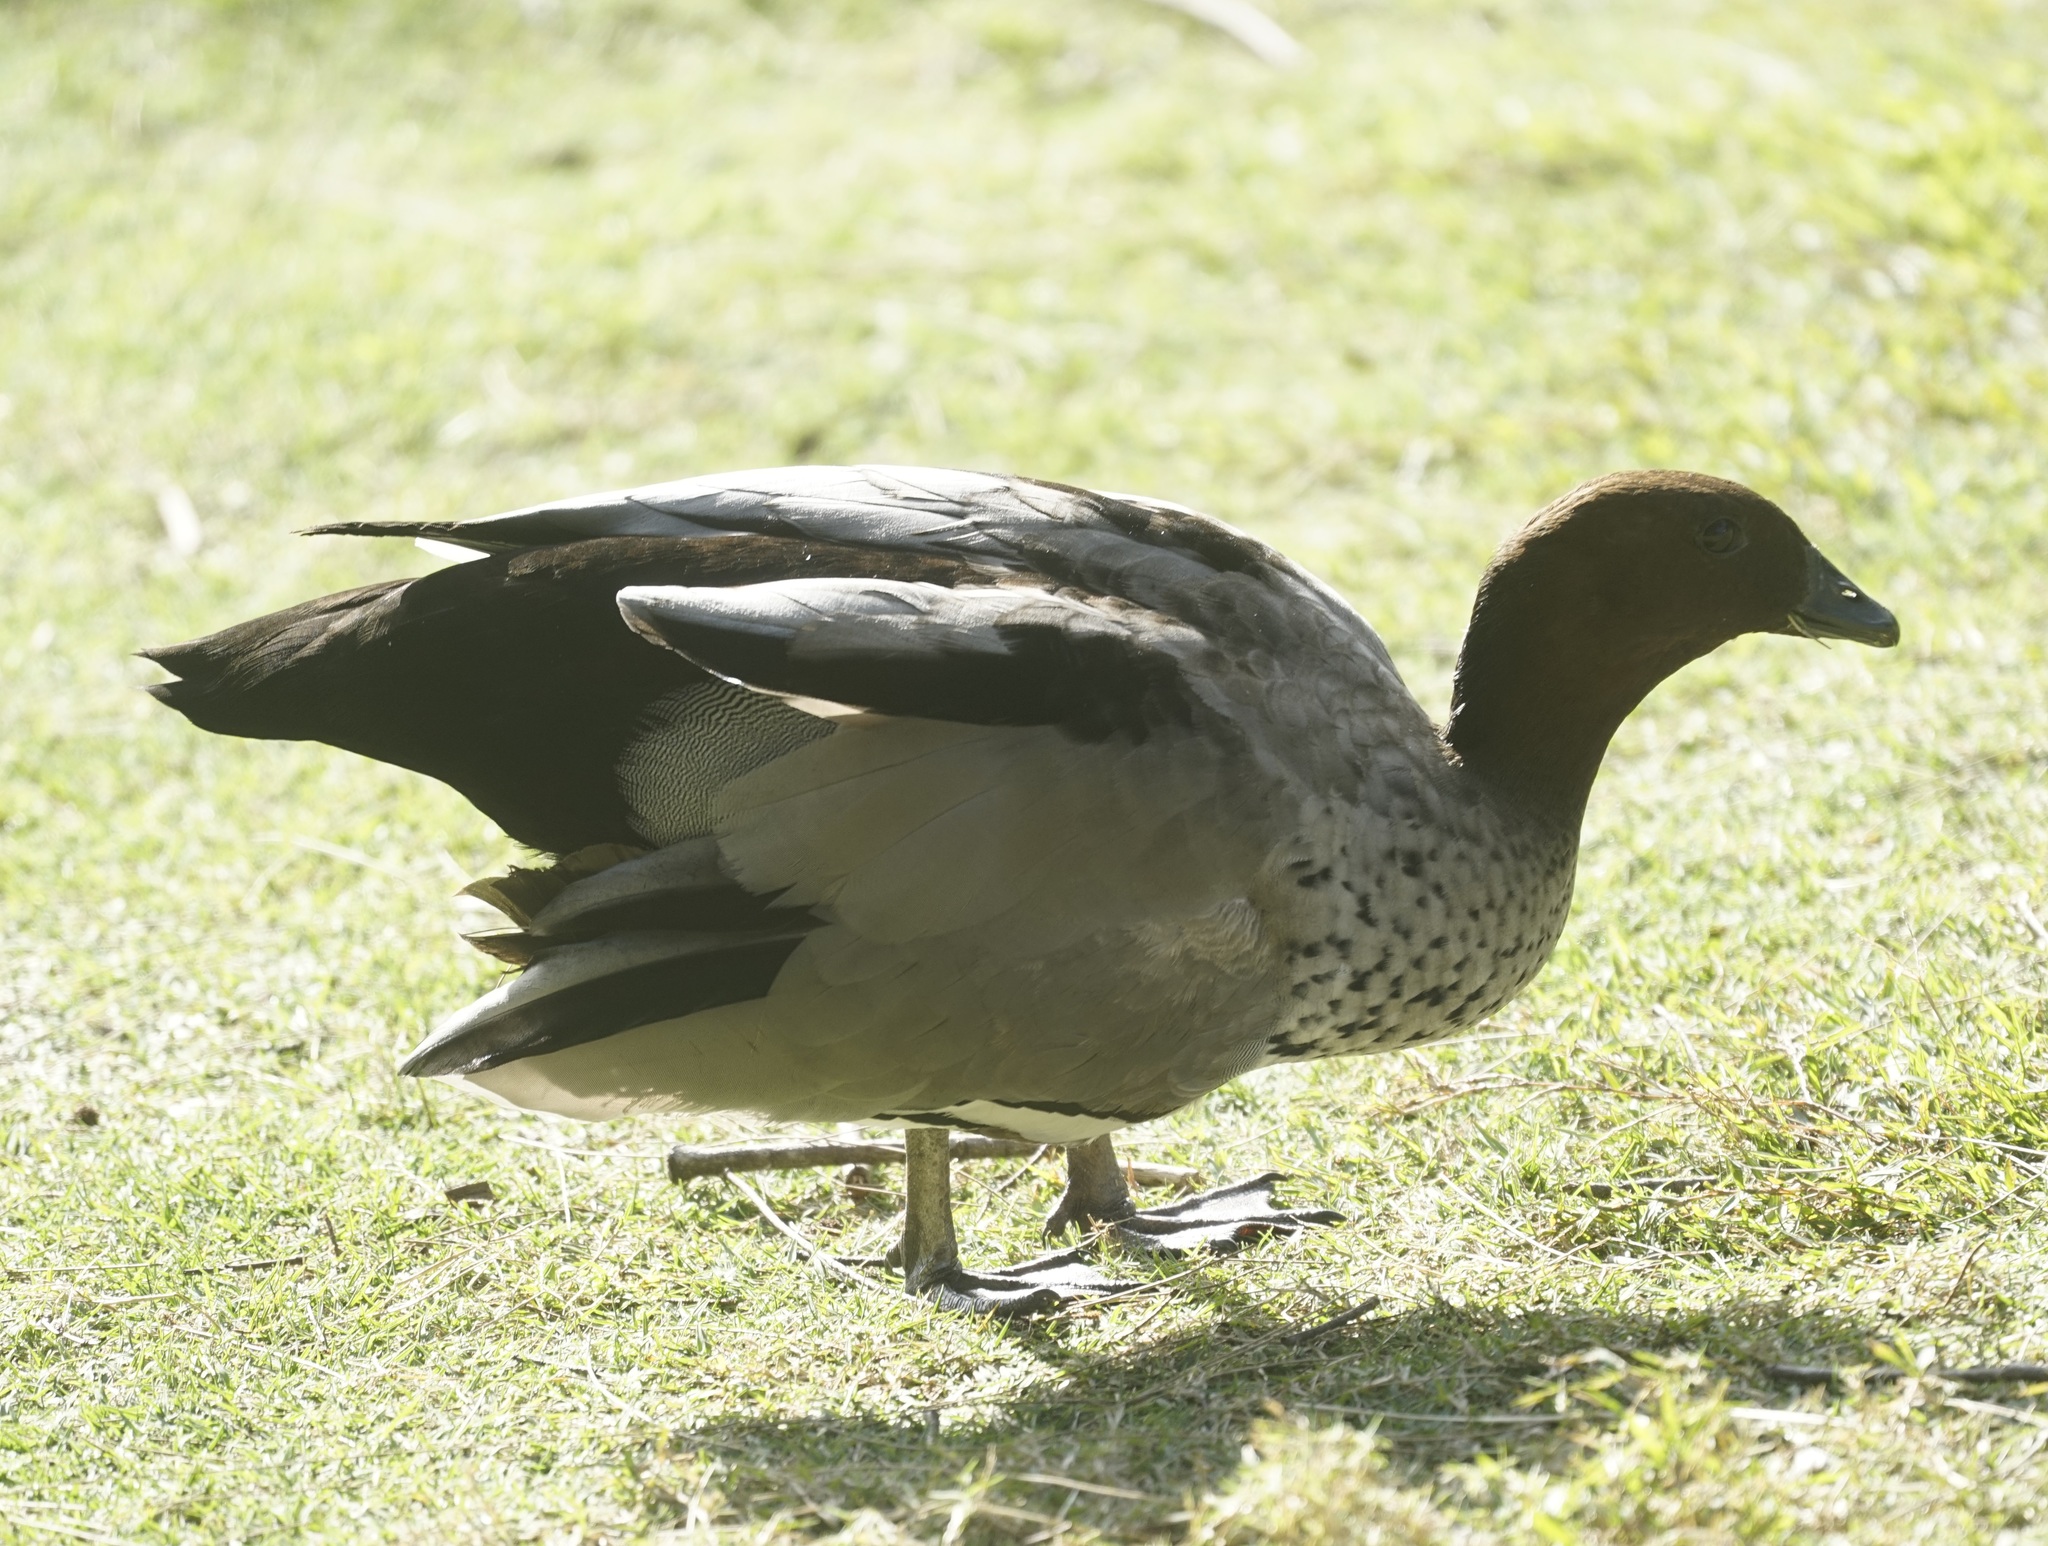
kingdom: Animalia
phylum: Chordata
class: Aves
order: Anseriformes
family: Anatidae
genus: Chenonetta
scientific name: Chenonetta jubata
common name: Maned duck
